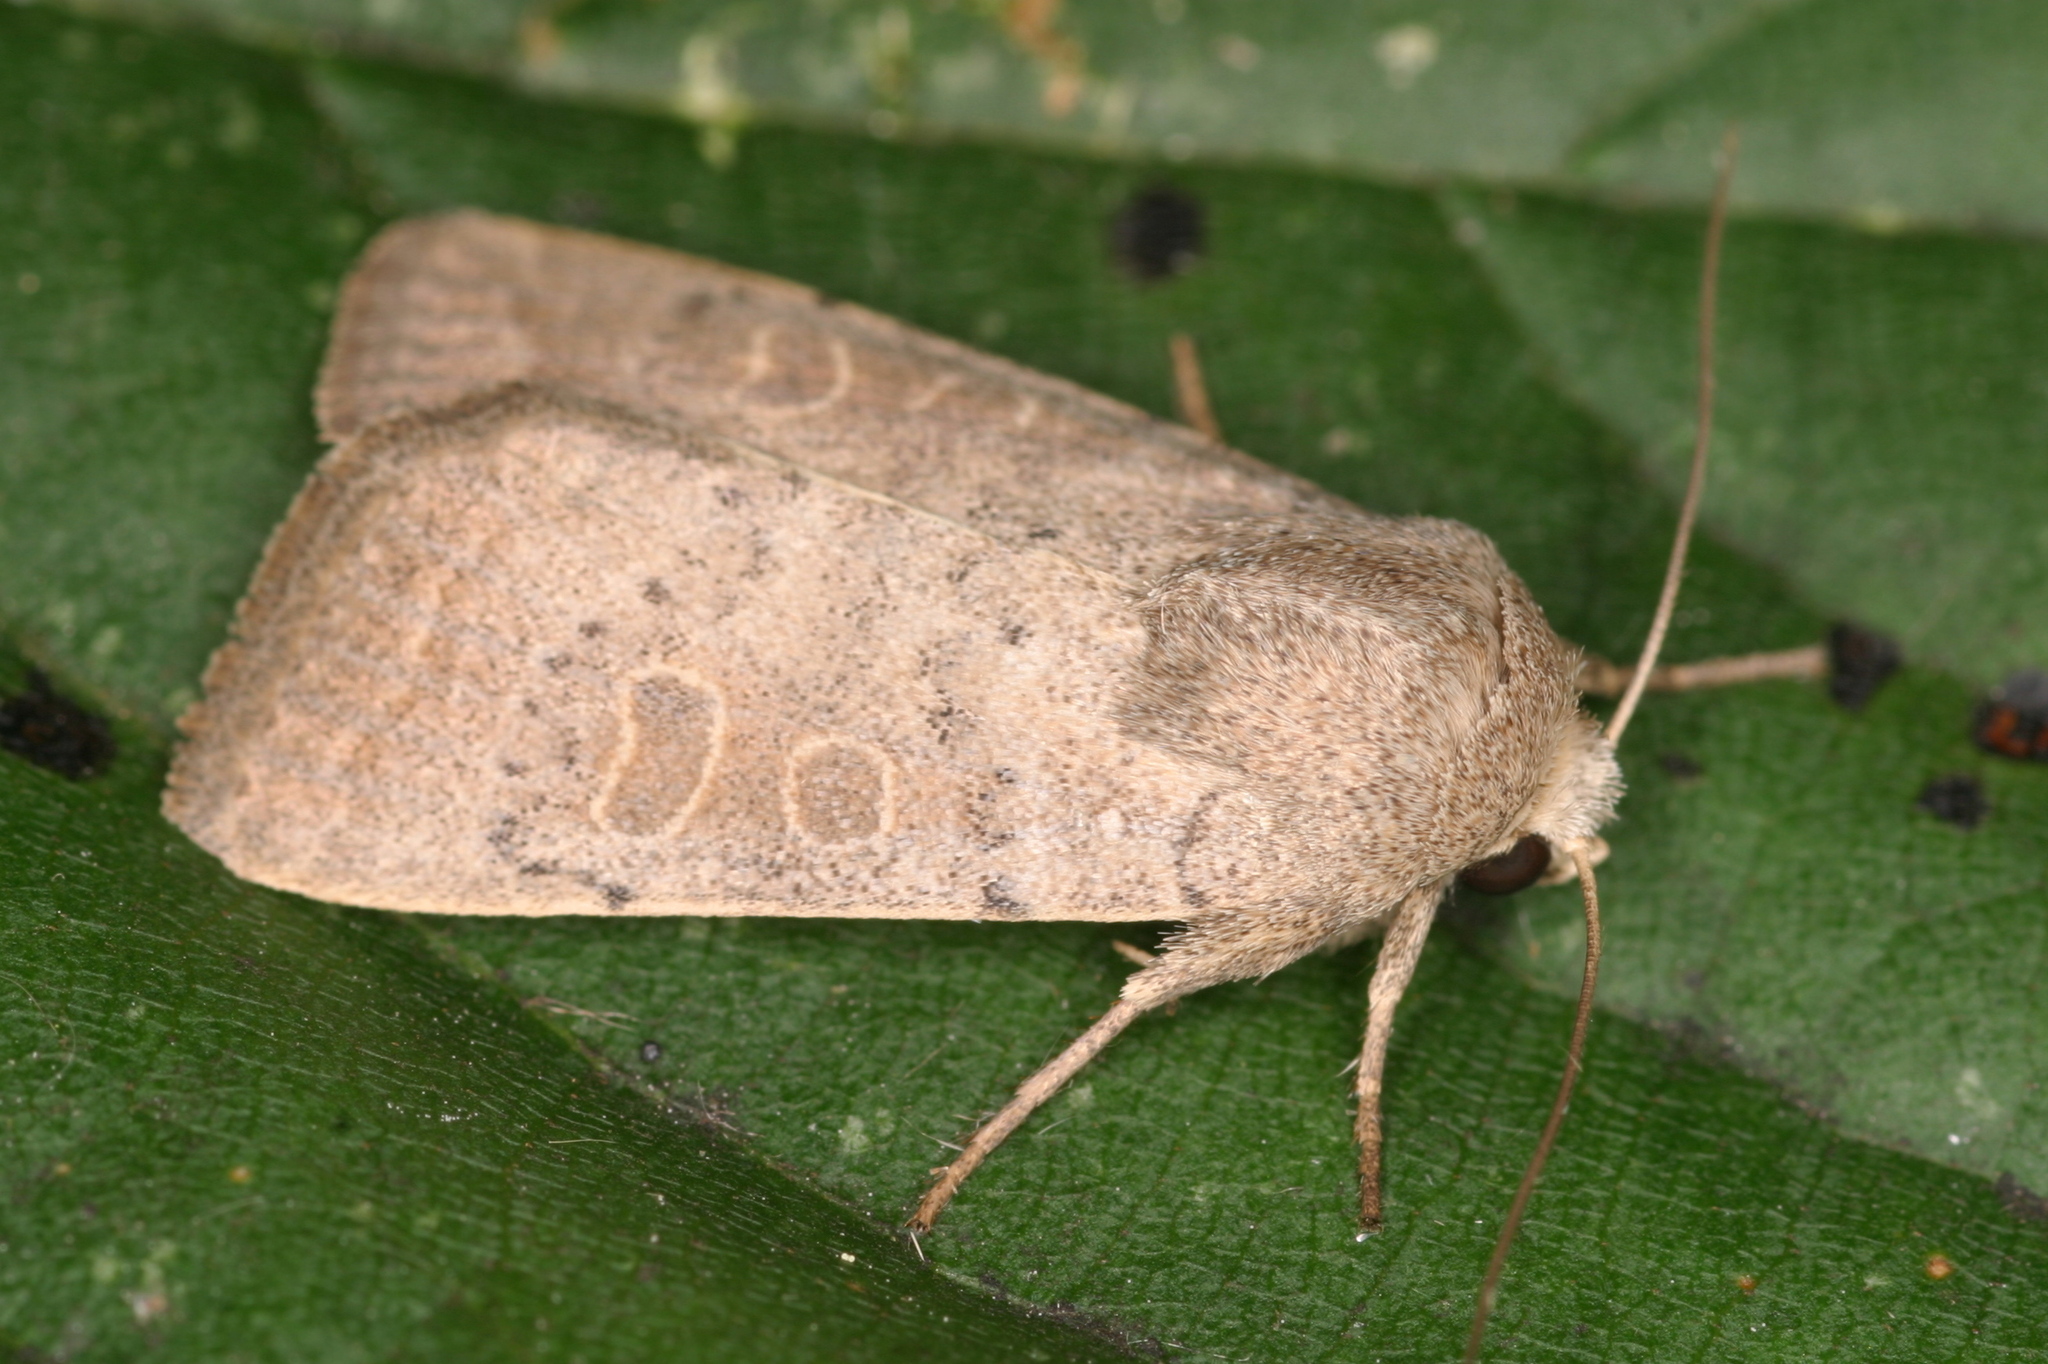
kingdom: Animalia
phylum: Arthropoda
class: Insecta
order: Lepidoptera
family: Noctuidae
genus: Hoplodrina
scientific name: Hoplodrina ambigua
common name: Vine's rustic
